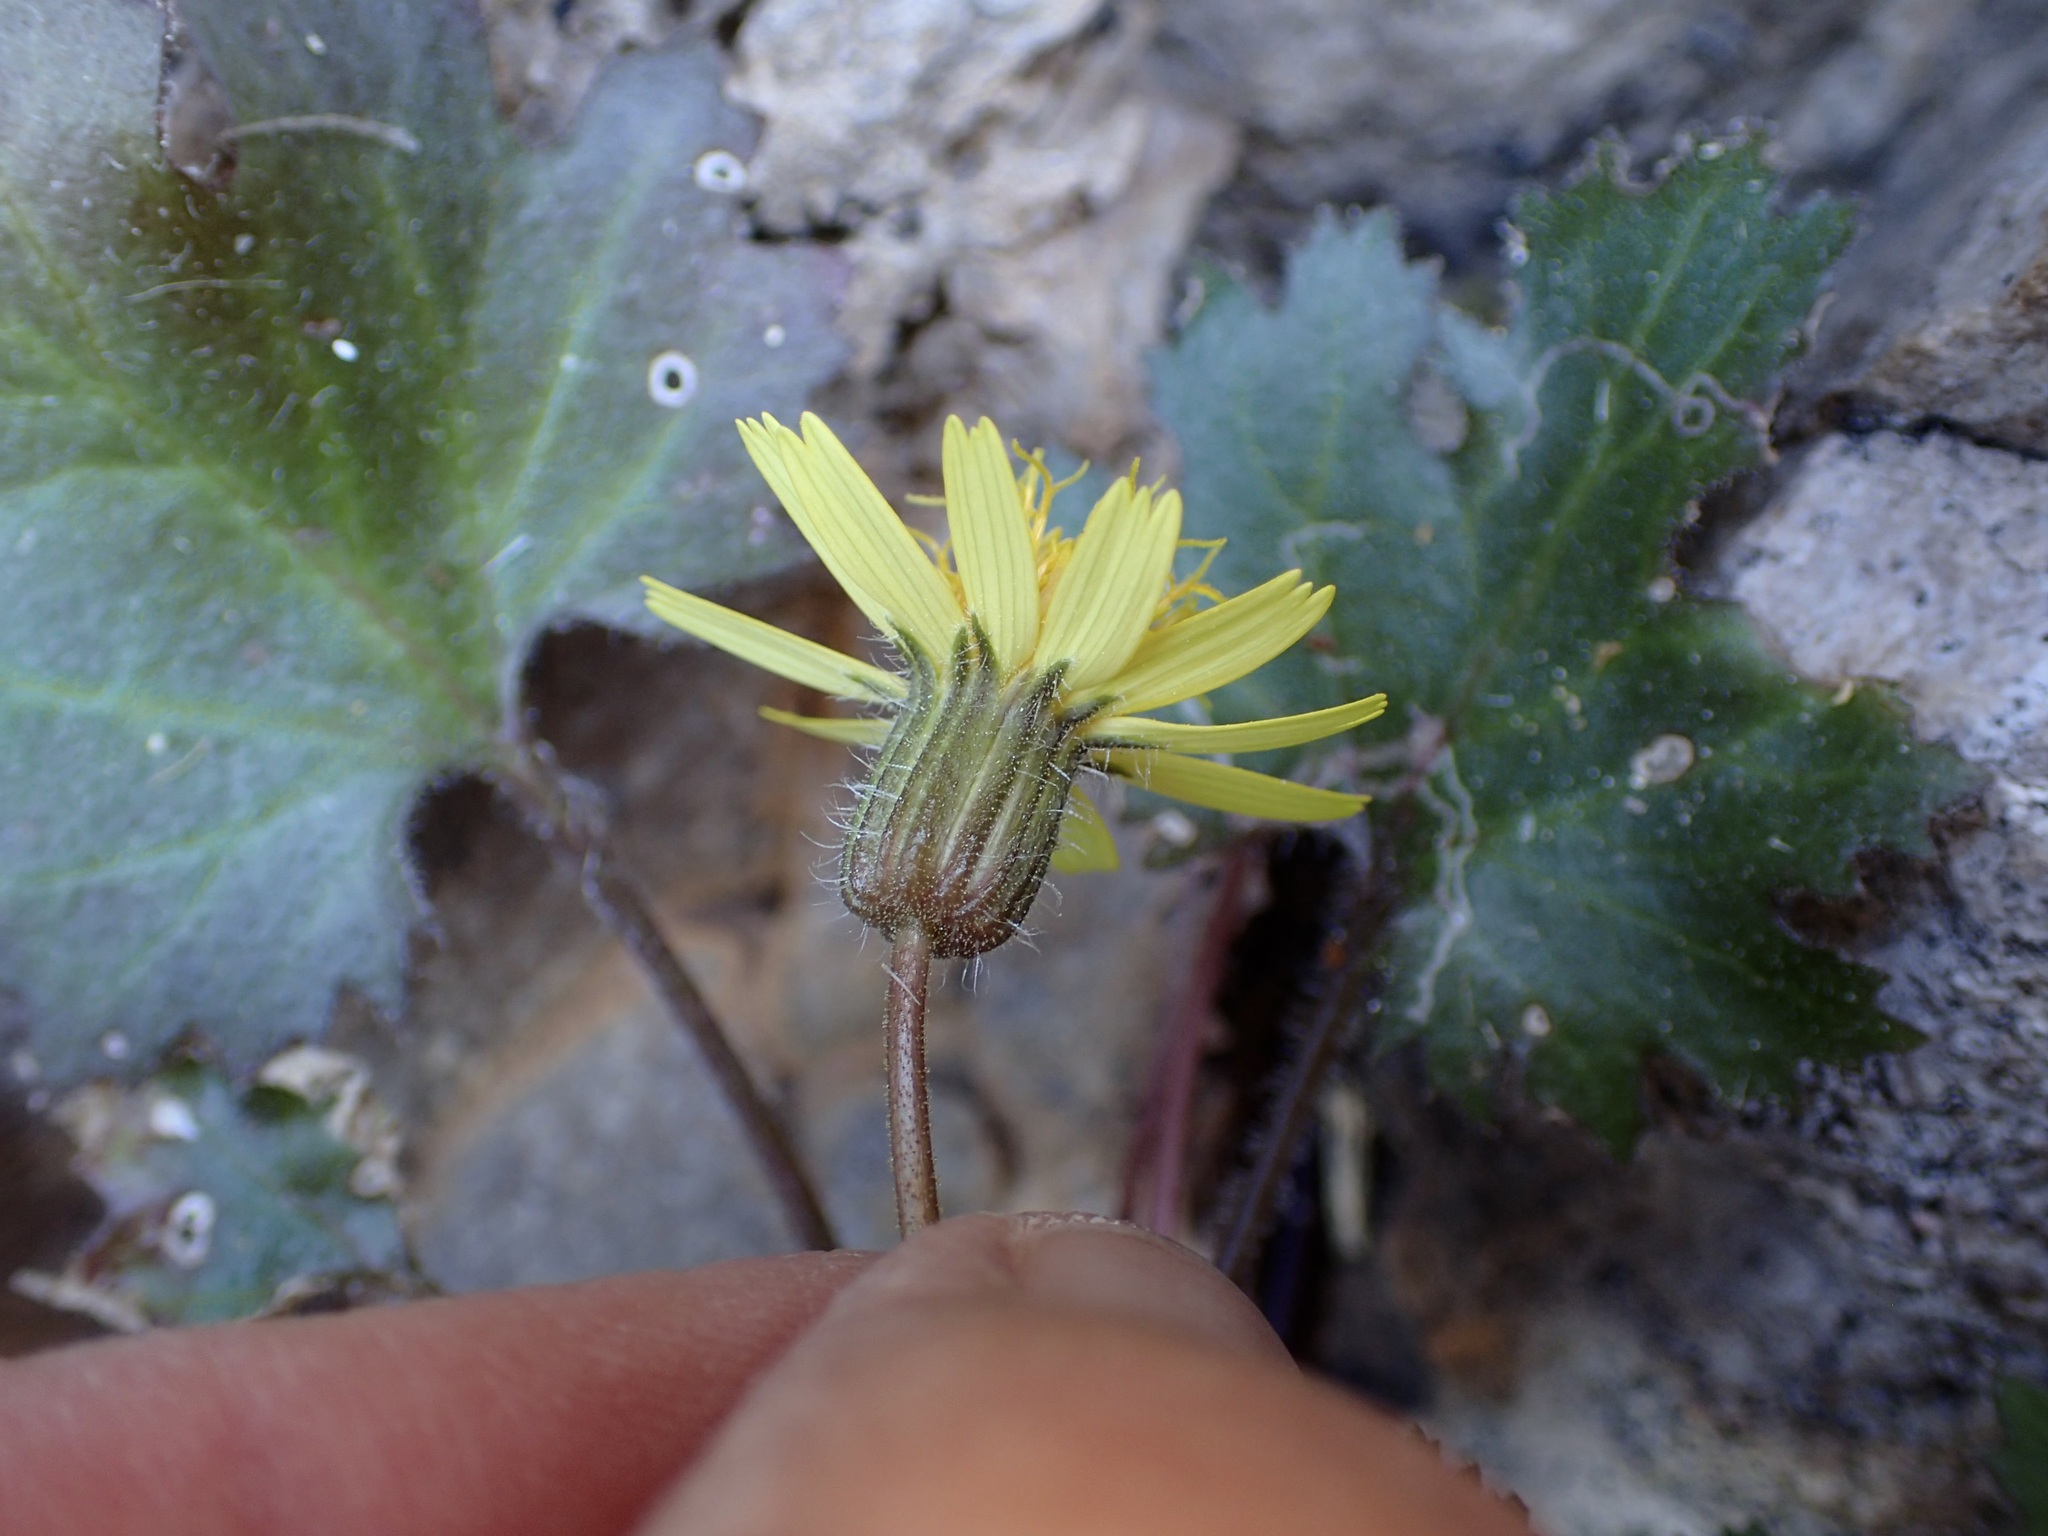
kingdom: Plantae
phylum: Tracheophyta
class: Magnoliopsida
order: Asterales
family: Asteraceae
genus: Laphamia
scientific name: Laphamia lobata
